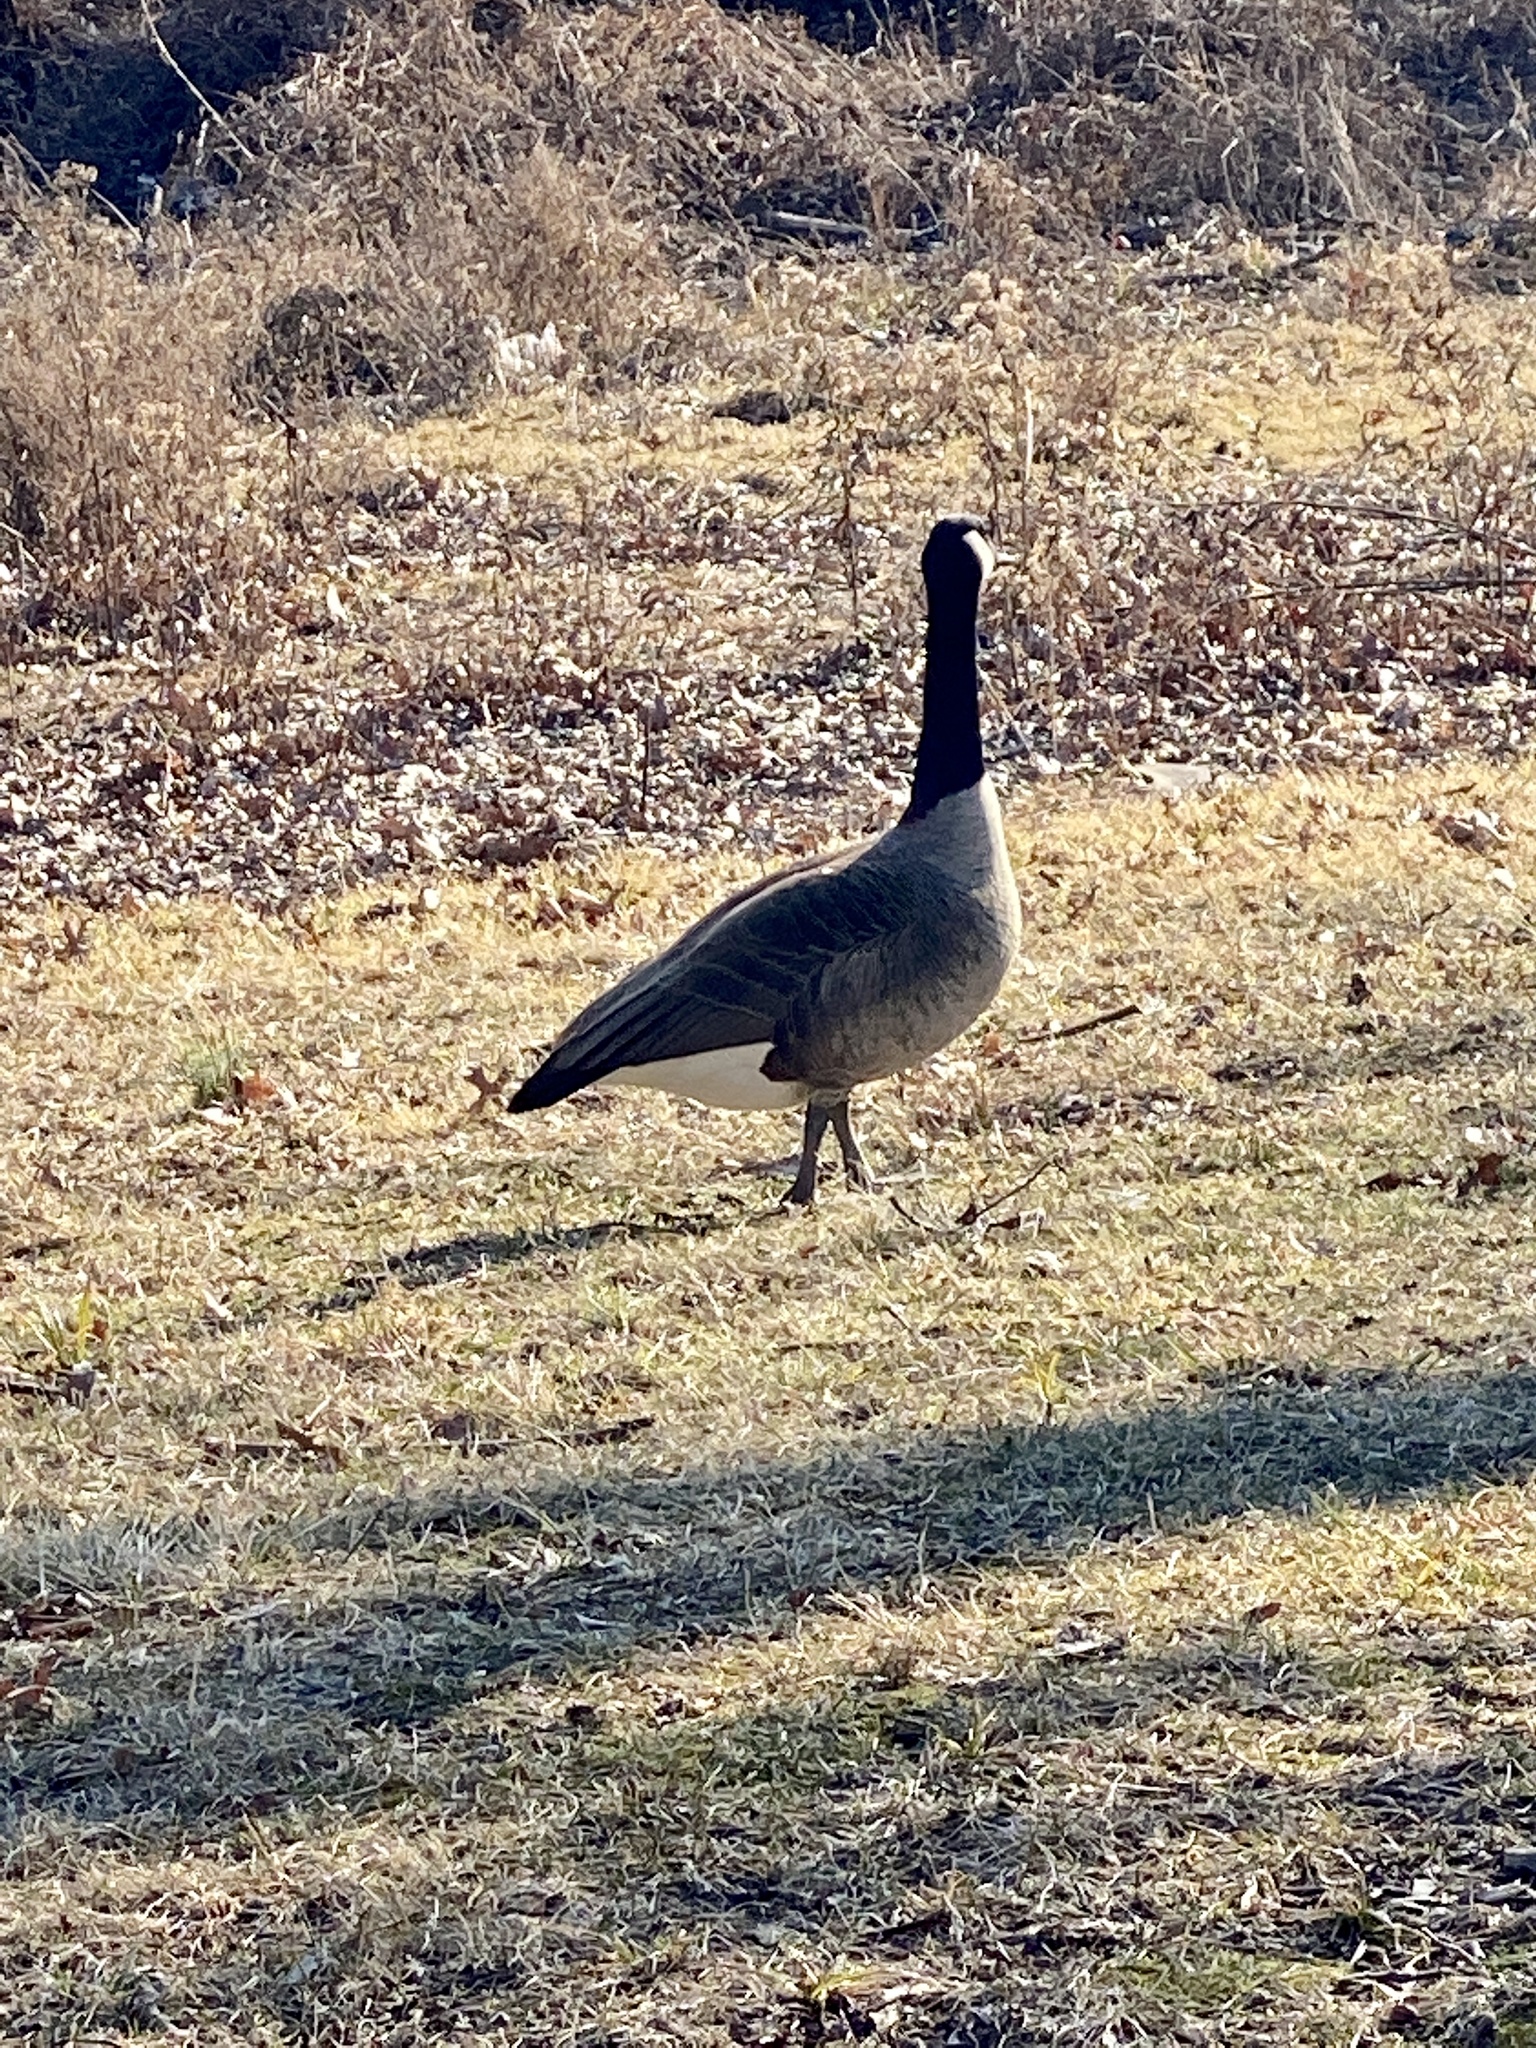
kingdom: Animalia
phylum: Chordata
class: Aves
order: Anseriformes
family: Anatidae
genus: Branta
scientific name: Branta canadensis
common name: Canada goose
